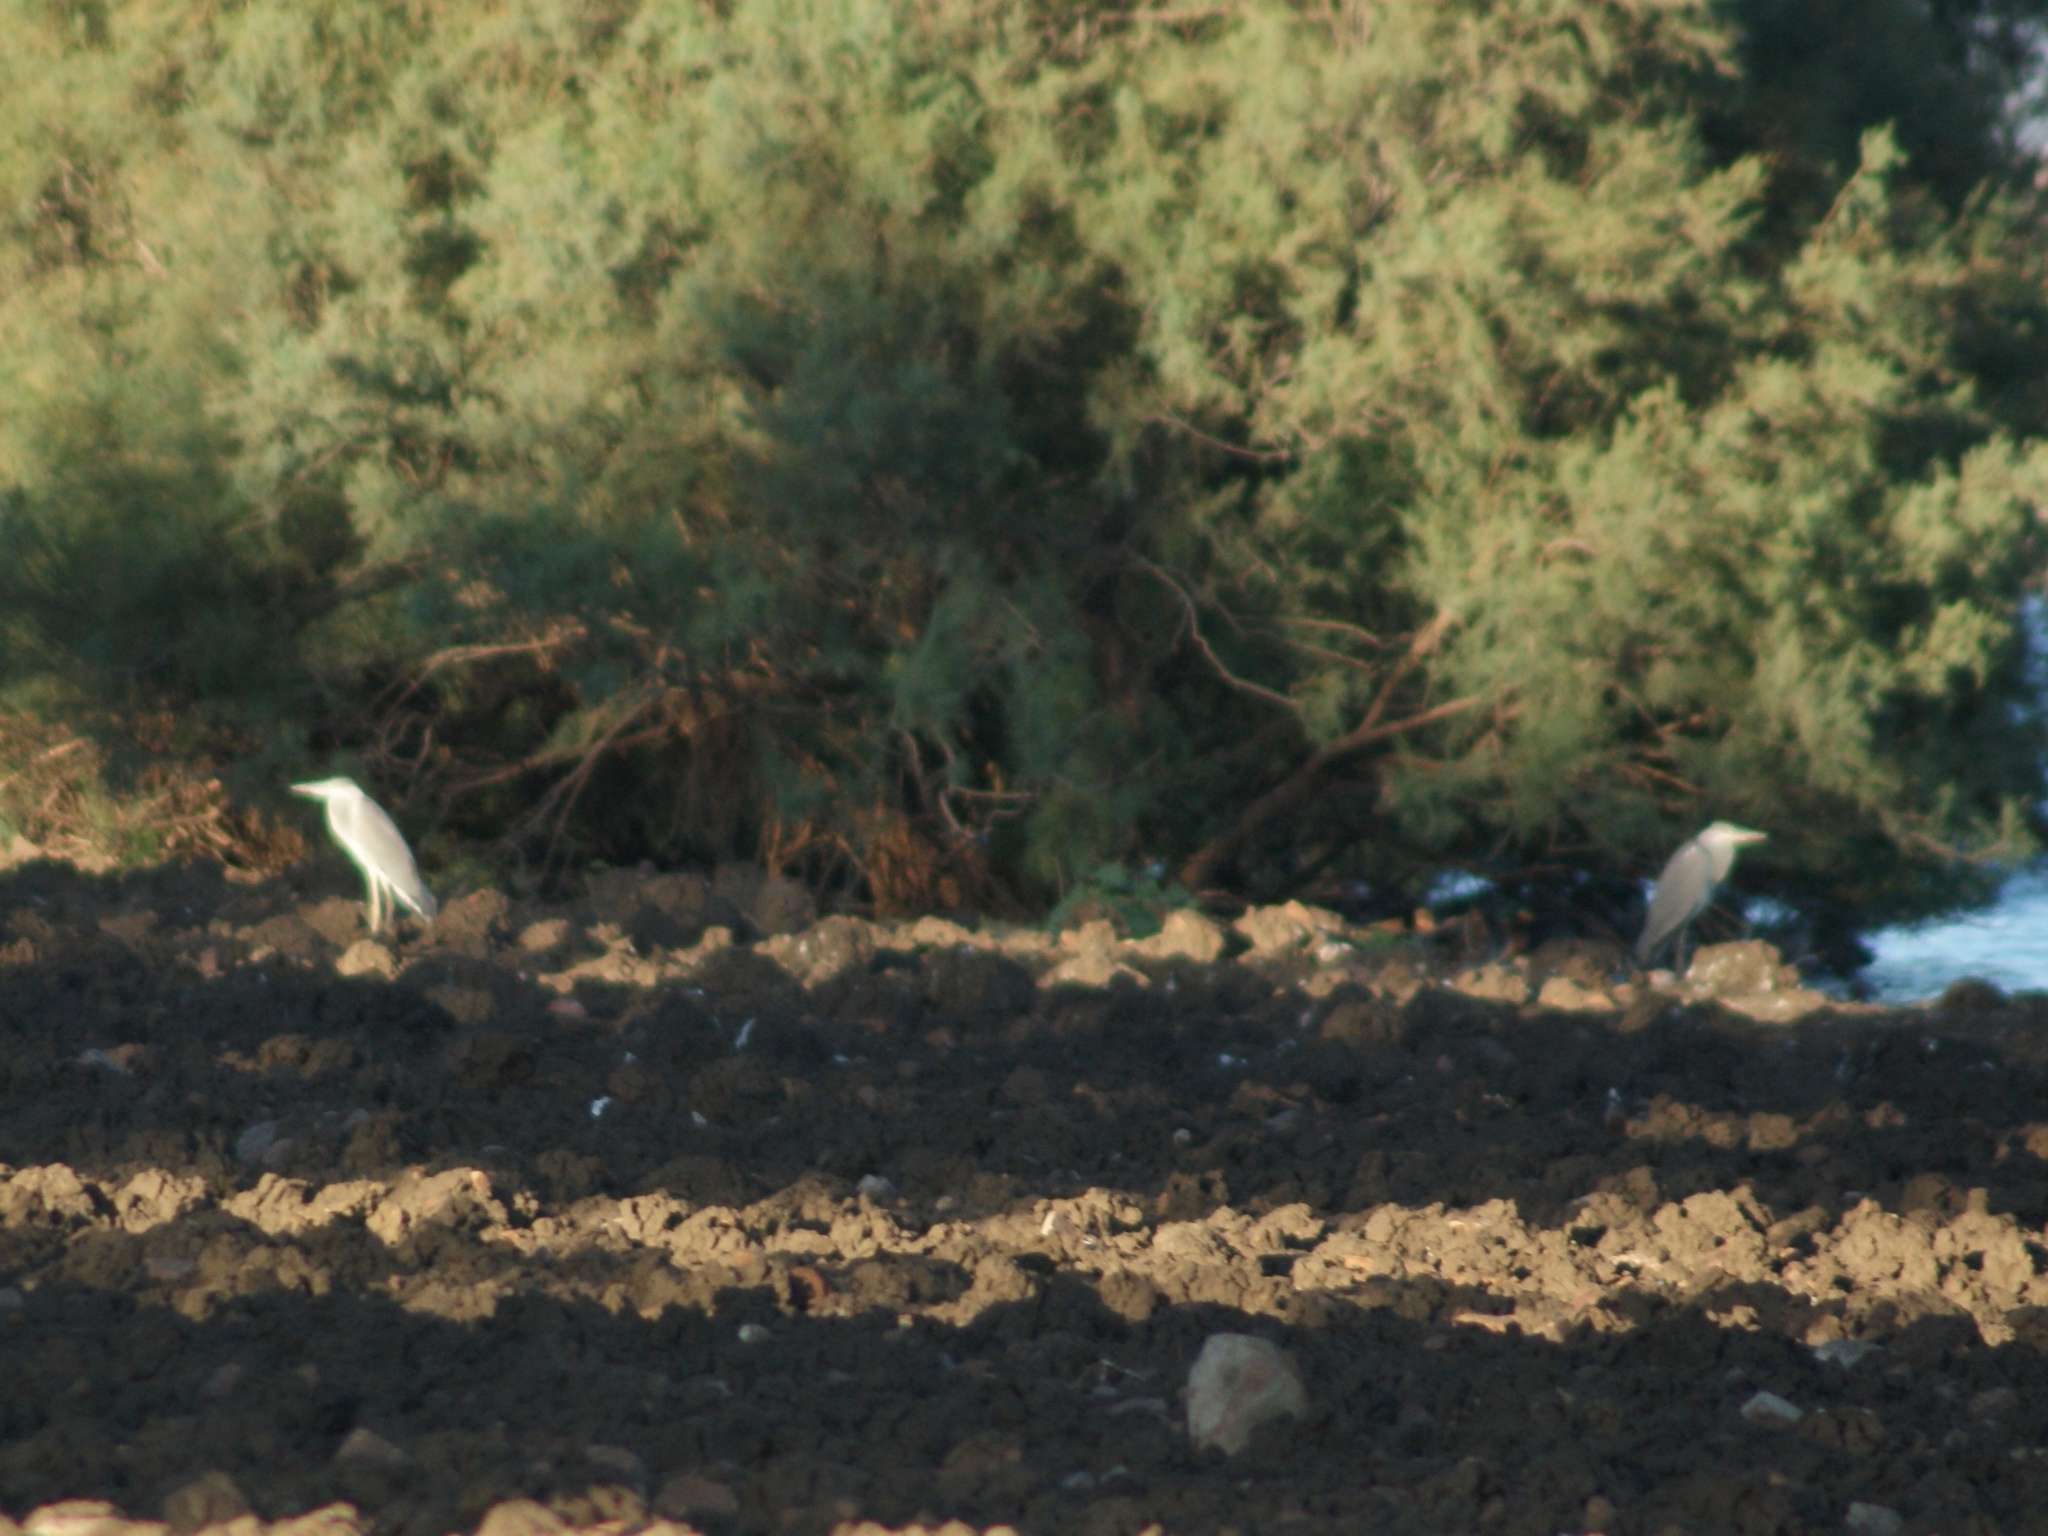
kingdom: Animalia
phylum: Chordata
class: Aves
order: Pelecaniformes
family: Ardeidae
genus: Ardea
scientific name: Ardea cinerea
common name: Grey heron
